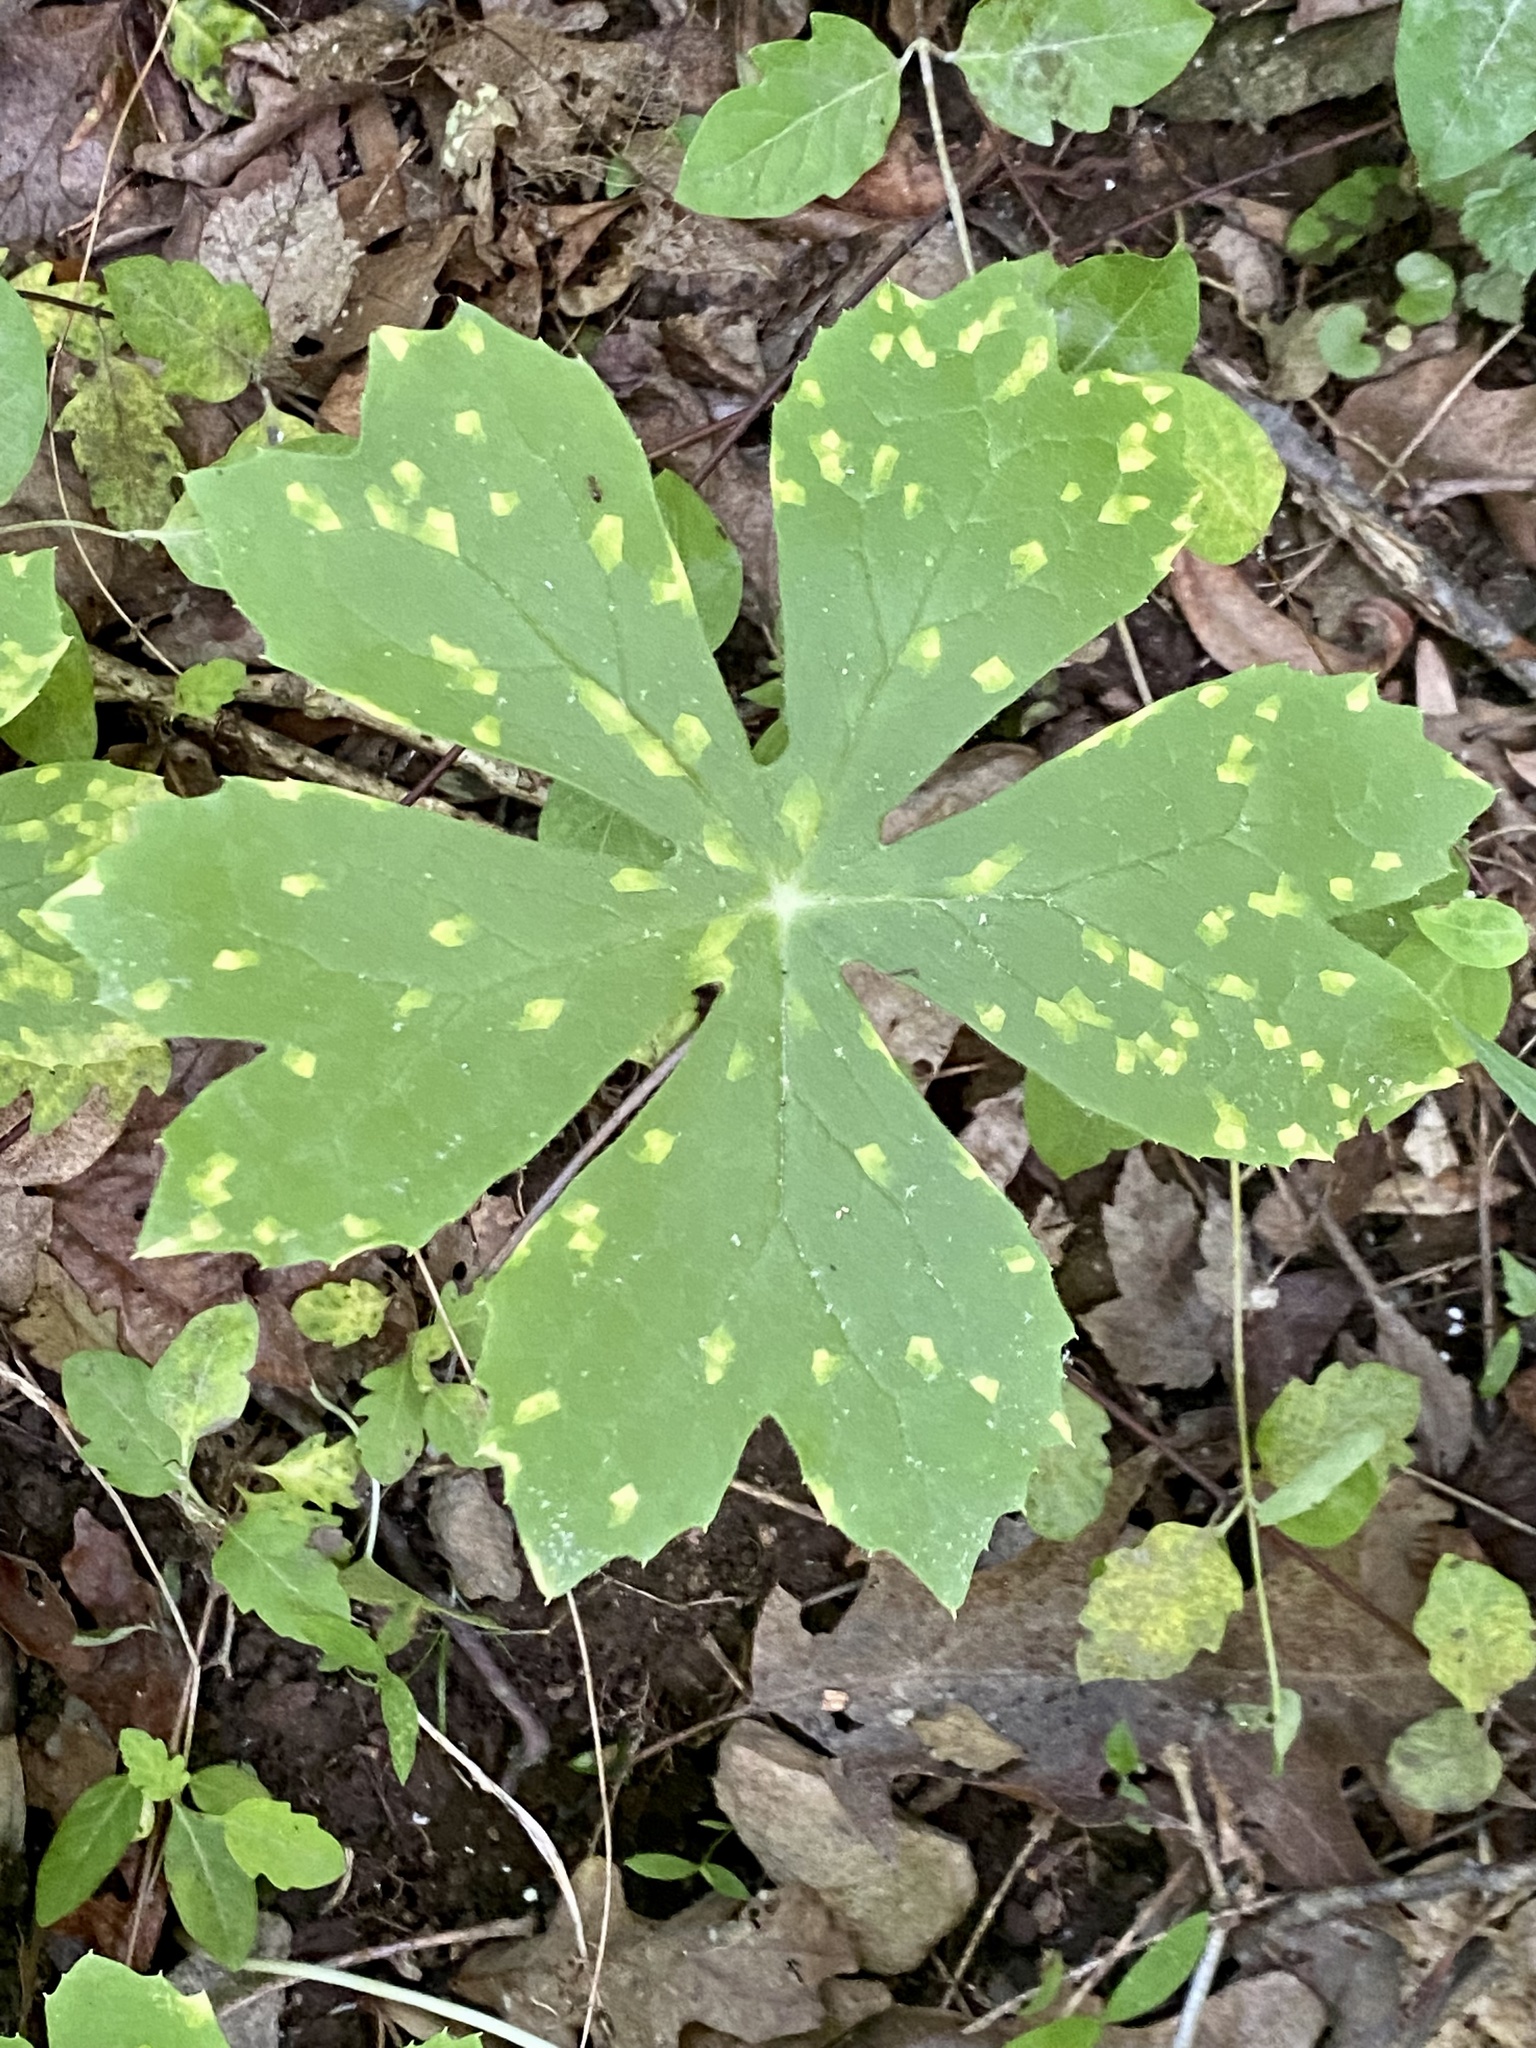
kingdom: Fungi
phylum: Basidiomycota
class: Pucciniomycetes
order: Pucciniales
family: Pucciniaceae
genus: Puccinia
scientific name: Puccinia podophylli
